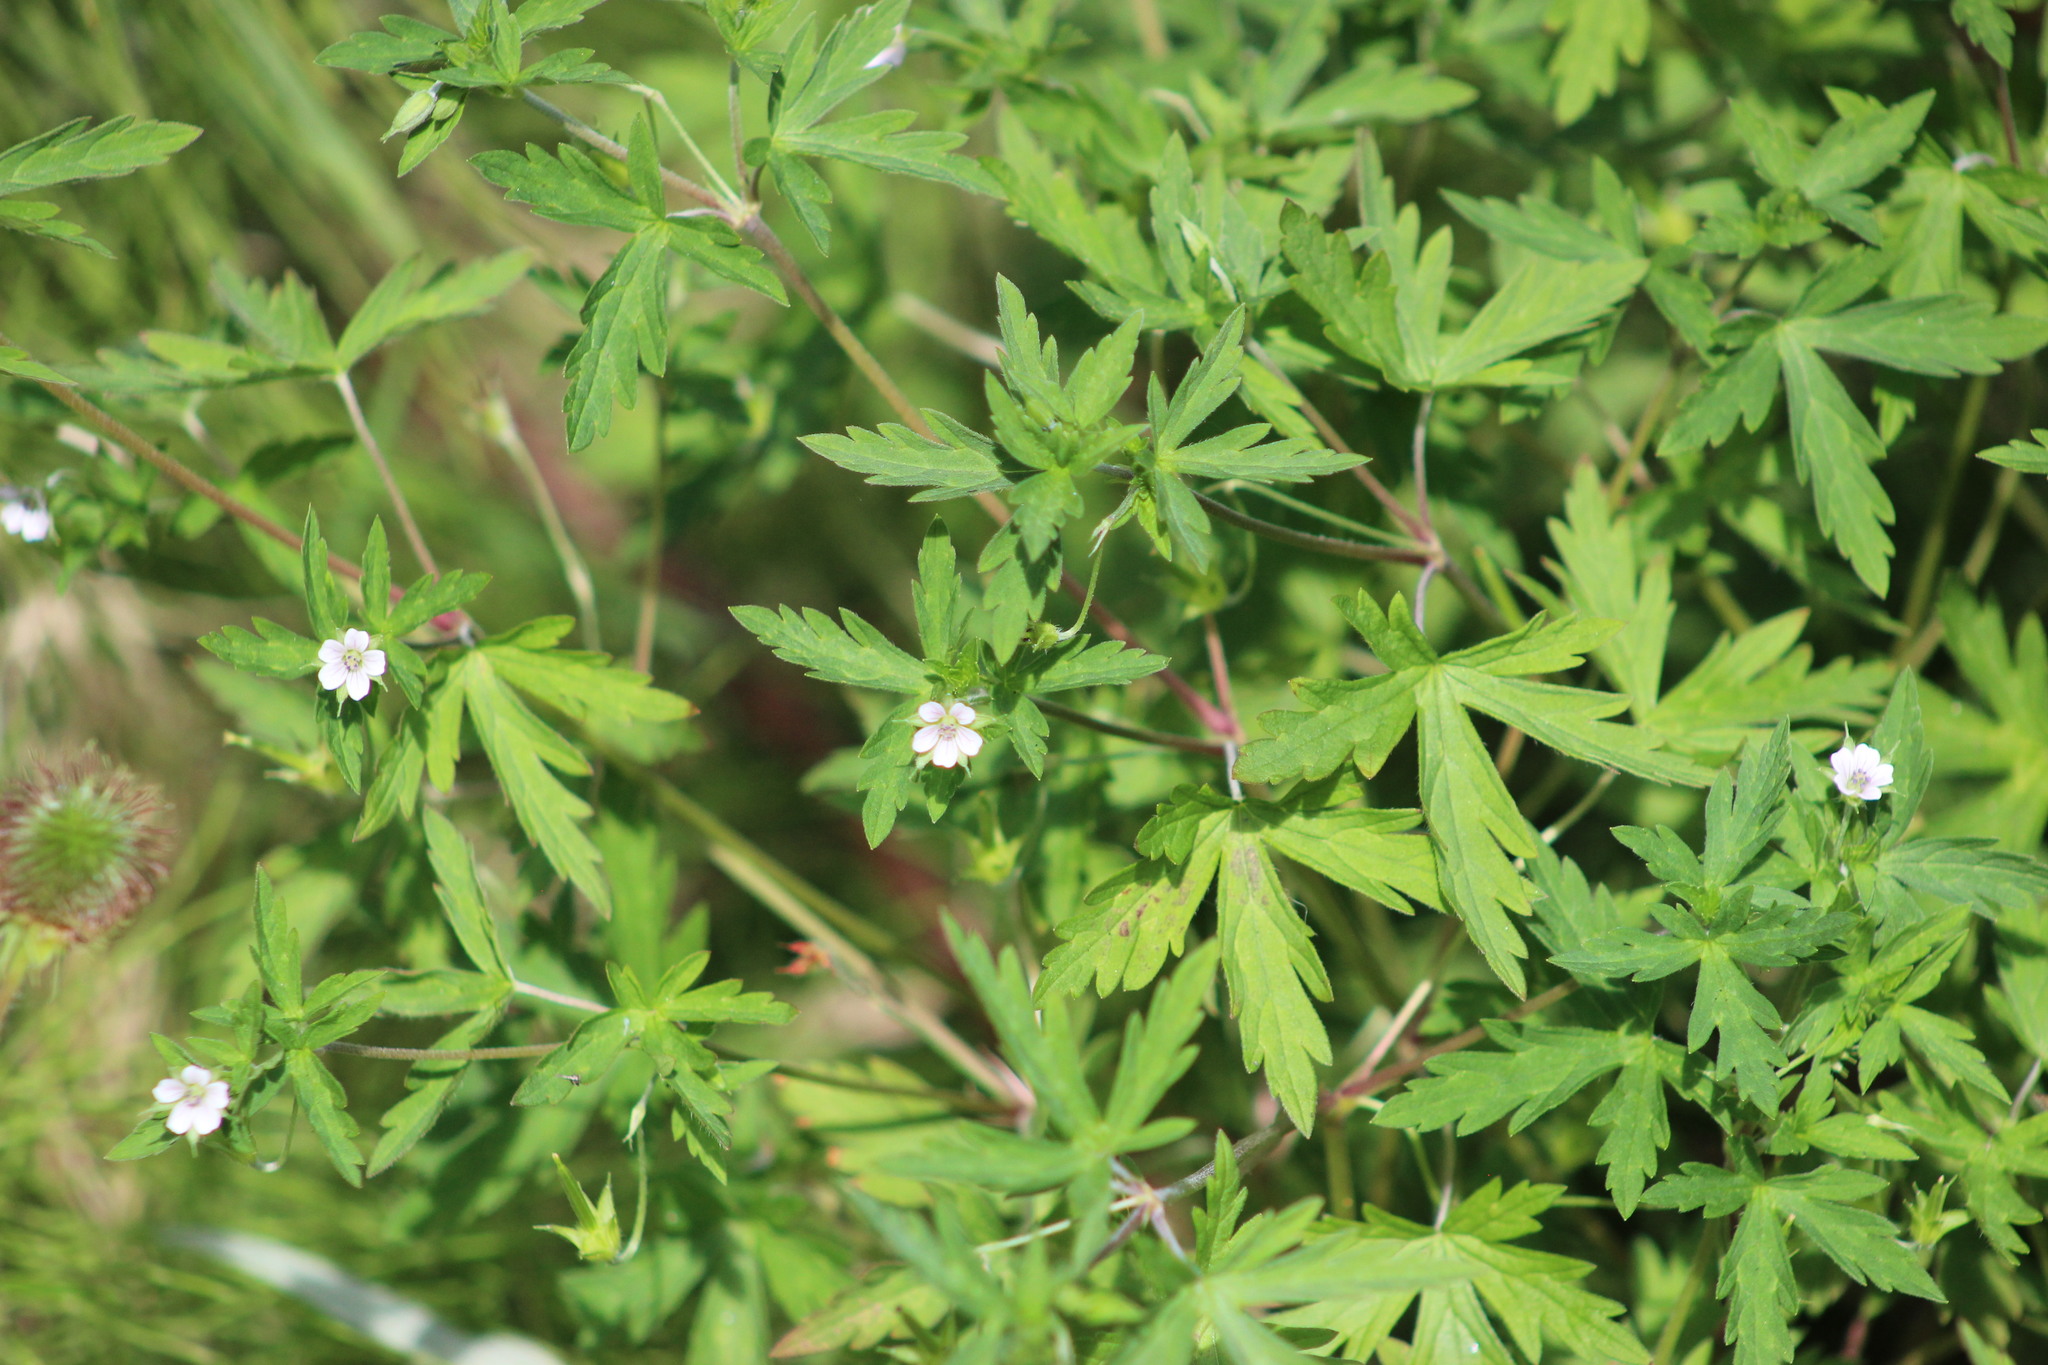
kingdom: Plantae
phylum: Tracheophyta
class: Magnoliopsida
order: Geraniales
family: Geraniaceae
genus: Geranium
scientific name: Geranium sibiricum
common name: Siberian crane's-bill
